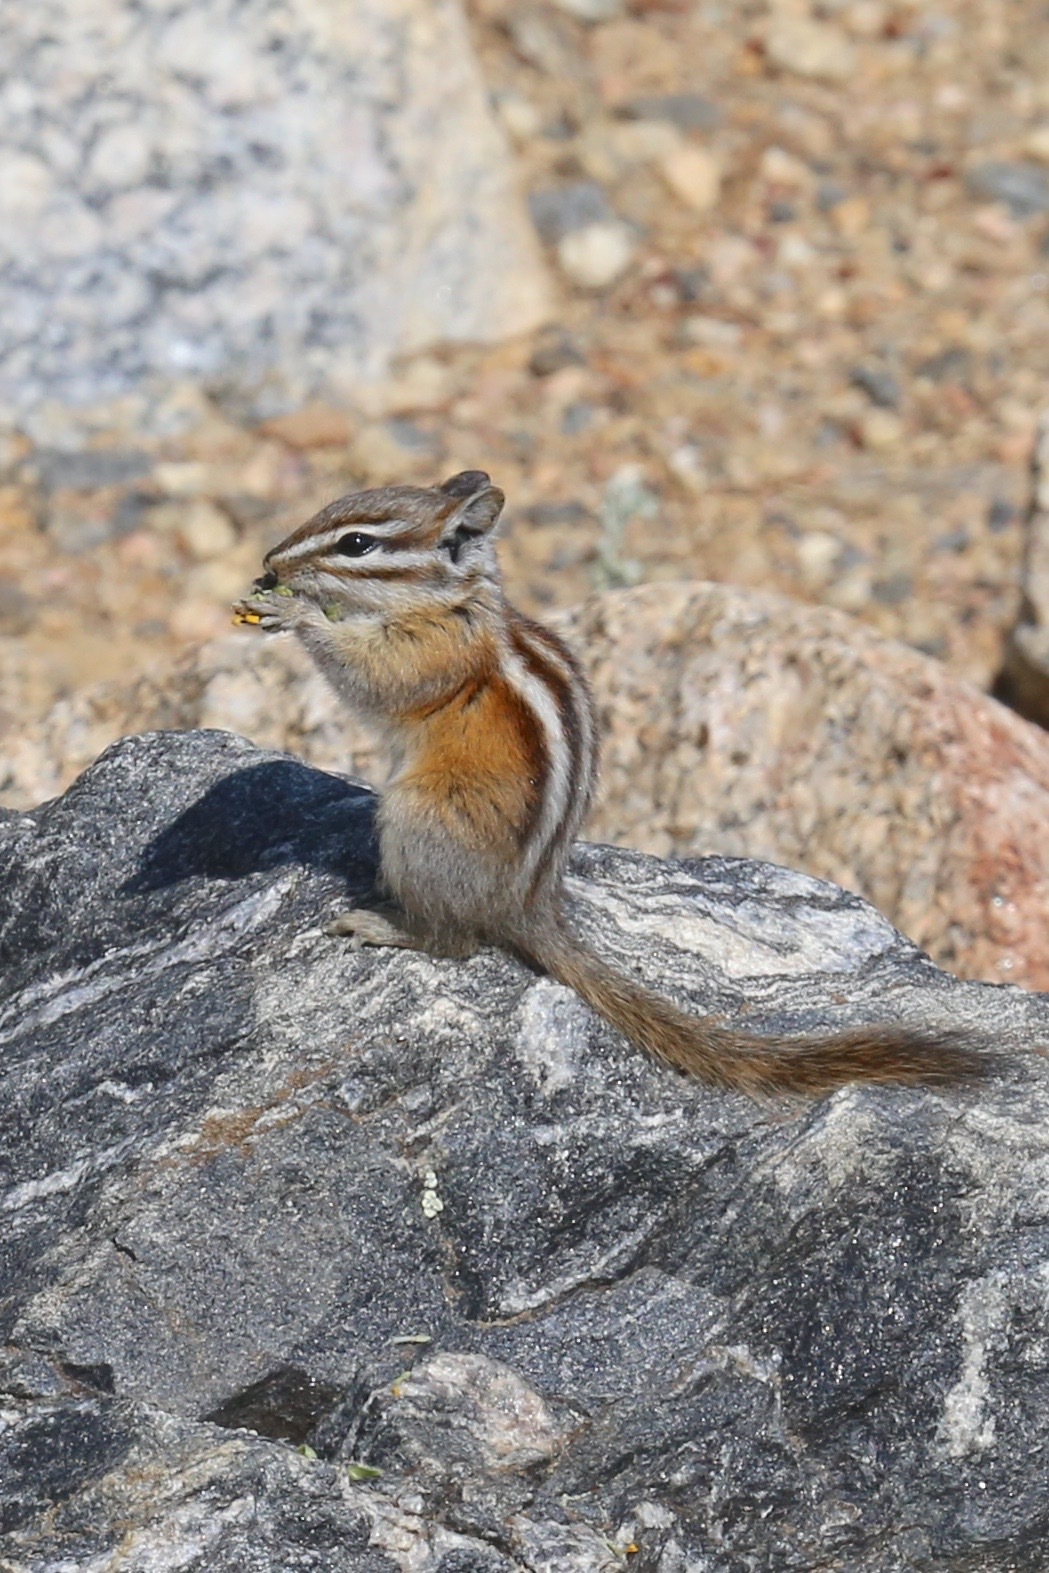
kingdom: Animalia
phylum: Chordata
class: Mammalia
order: Rodentia
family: Sciuridae
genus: Tamias
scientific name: Tamias minimus
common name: Least chipmunk
